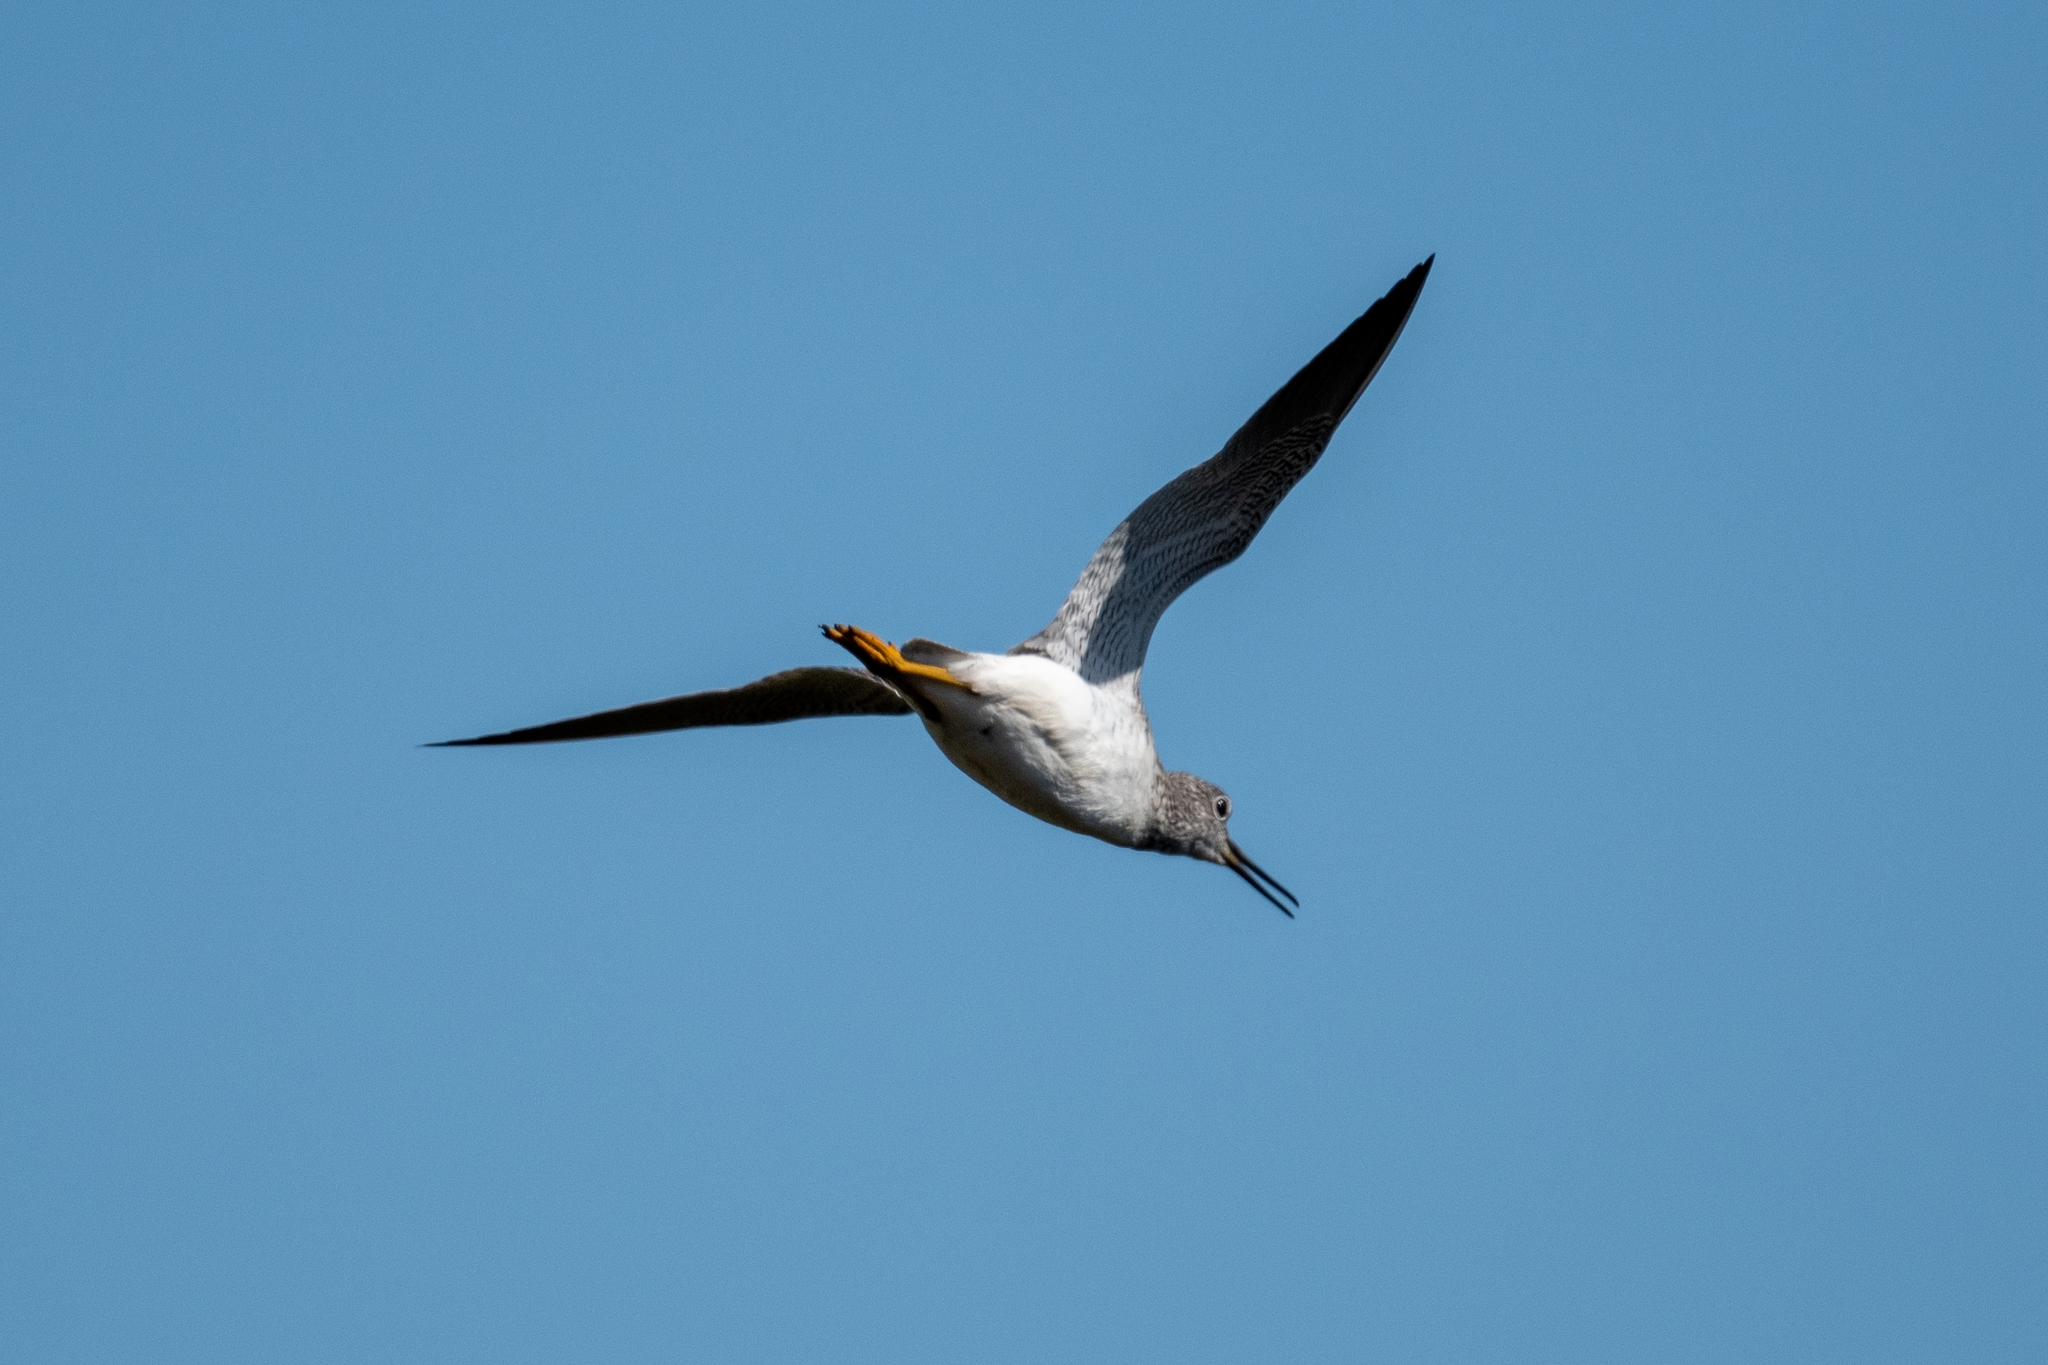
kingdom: Animalia
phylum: Chordata
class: Aves
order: Charadriiformes
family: Scolopacidae
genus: Tringa
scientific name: Tringa melanoleuca
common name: Greater yellowlegs
